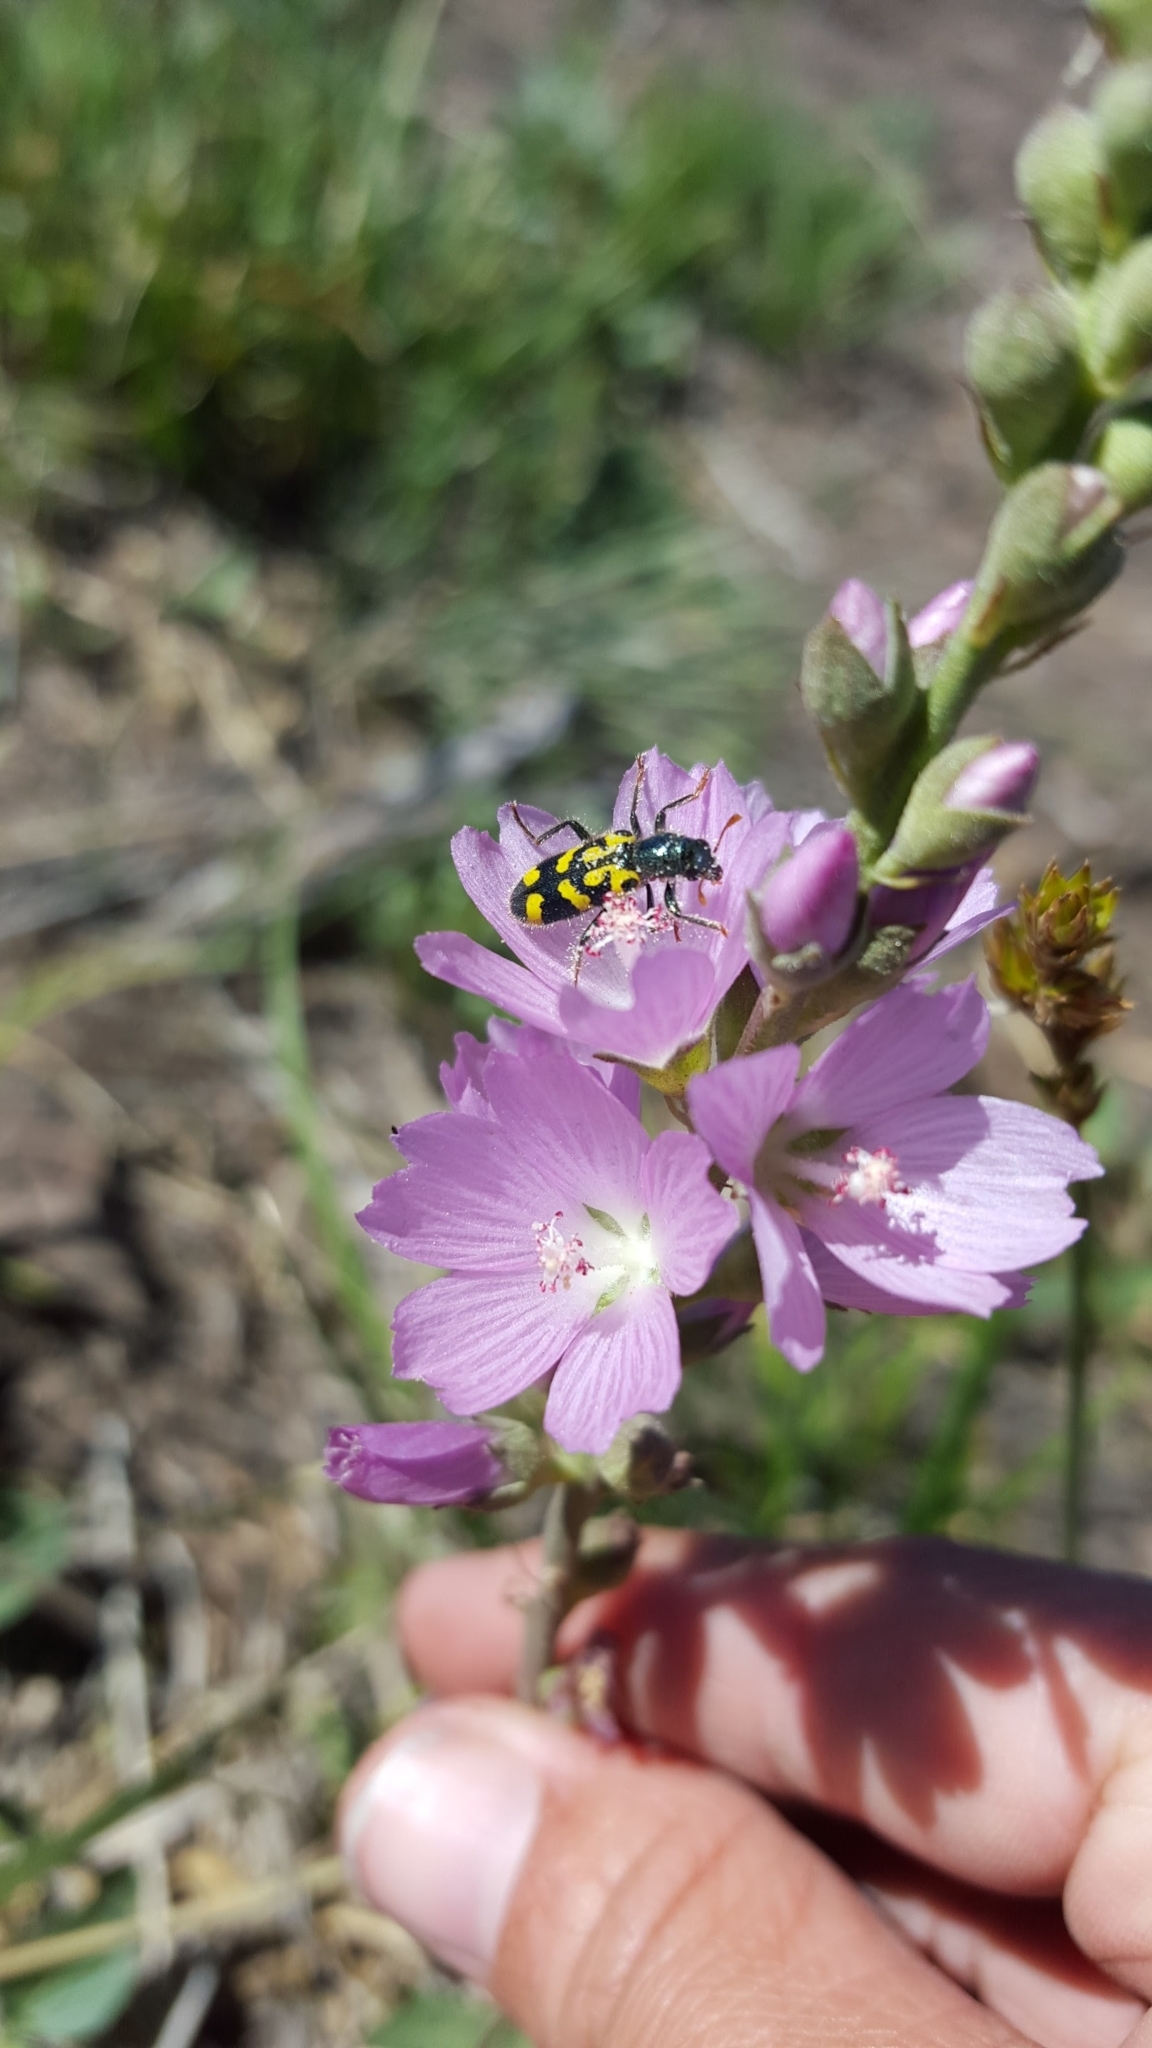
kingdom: Animalia
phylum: Arthropoda
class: Insecta
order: Coleoptera
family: Cleridae
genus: Trichodes
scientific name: Trichodes ornatus
